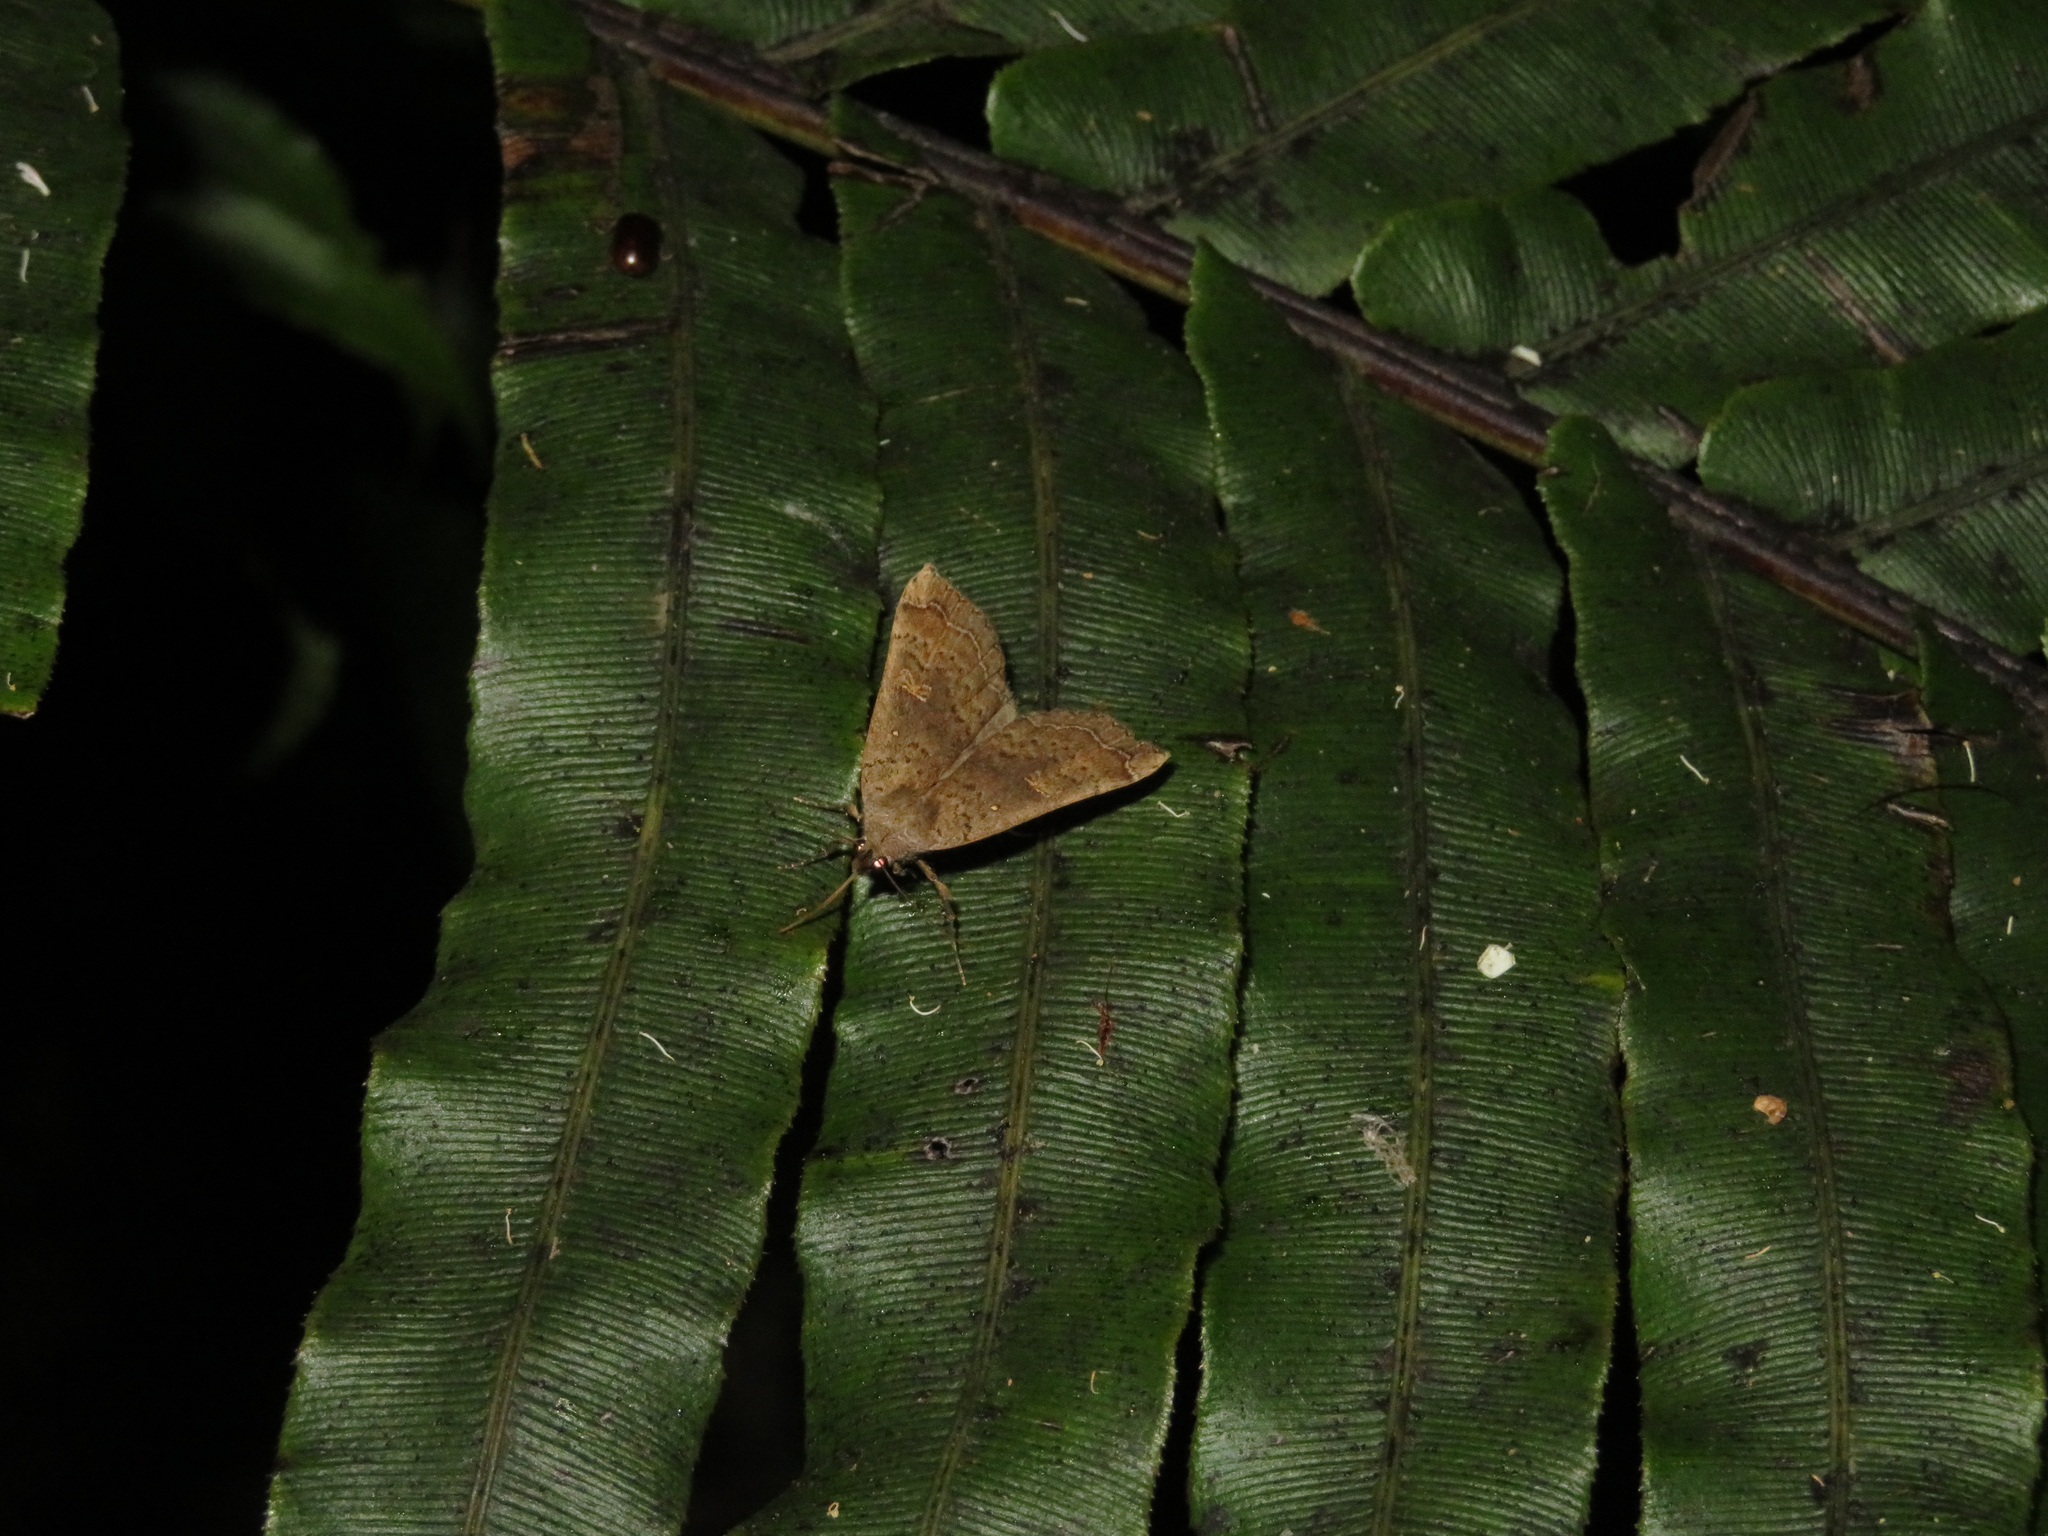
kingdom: Animalia
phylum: Arthropoda
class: Insecta
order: Lepidoptera
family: Erebidae
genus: Rhapsa
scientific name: Rhapsa scotosialis
